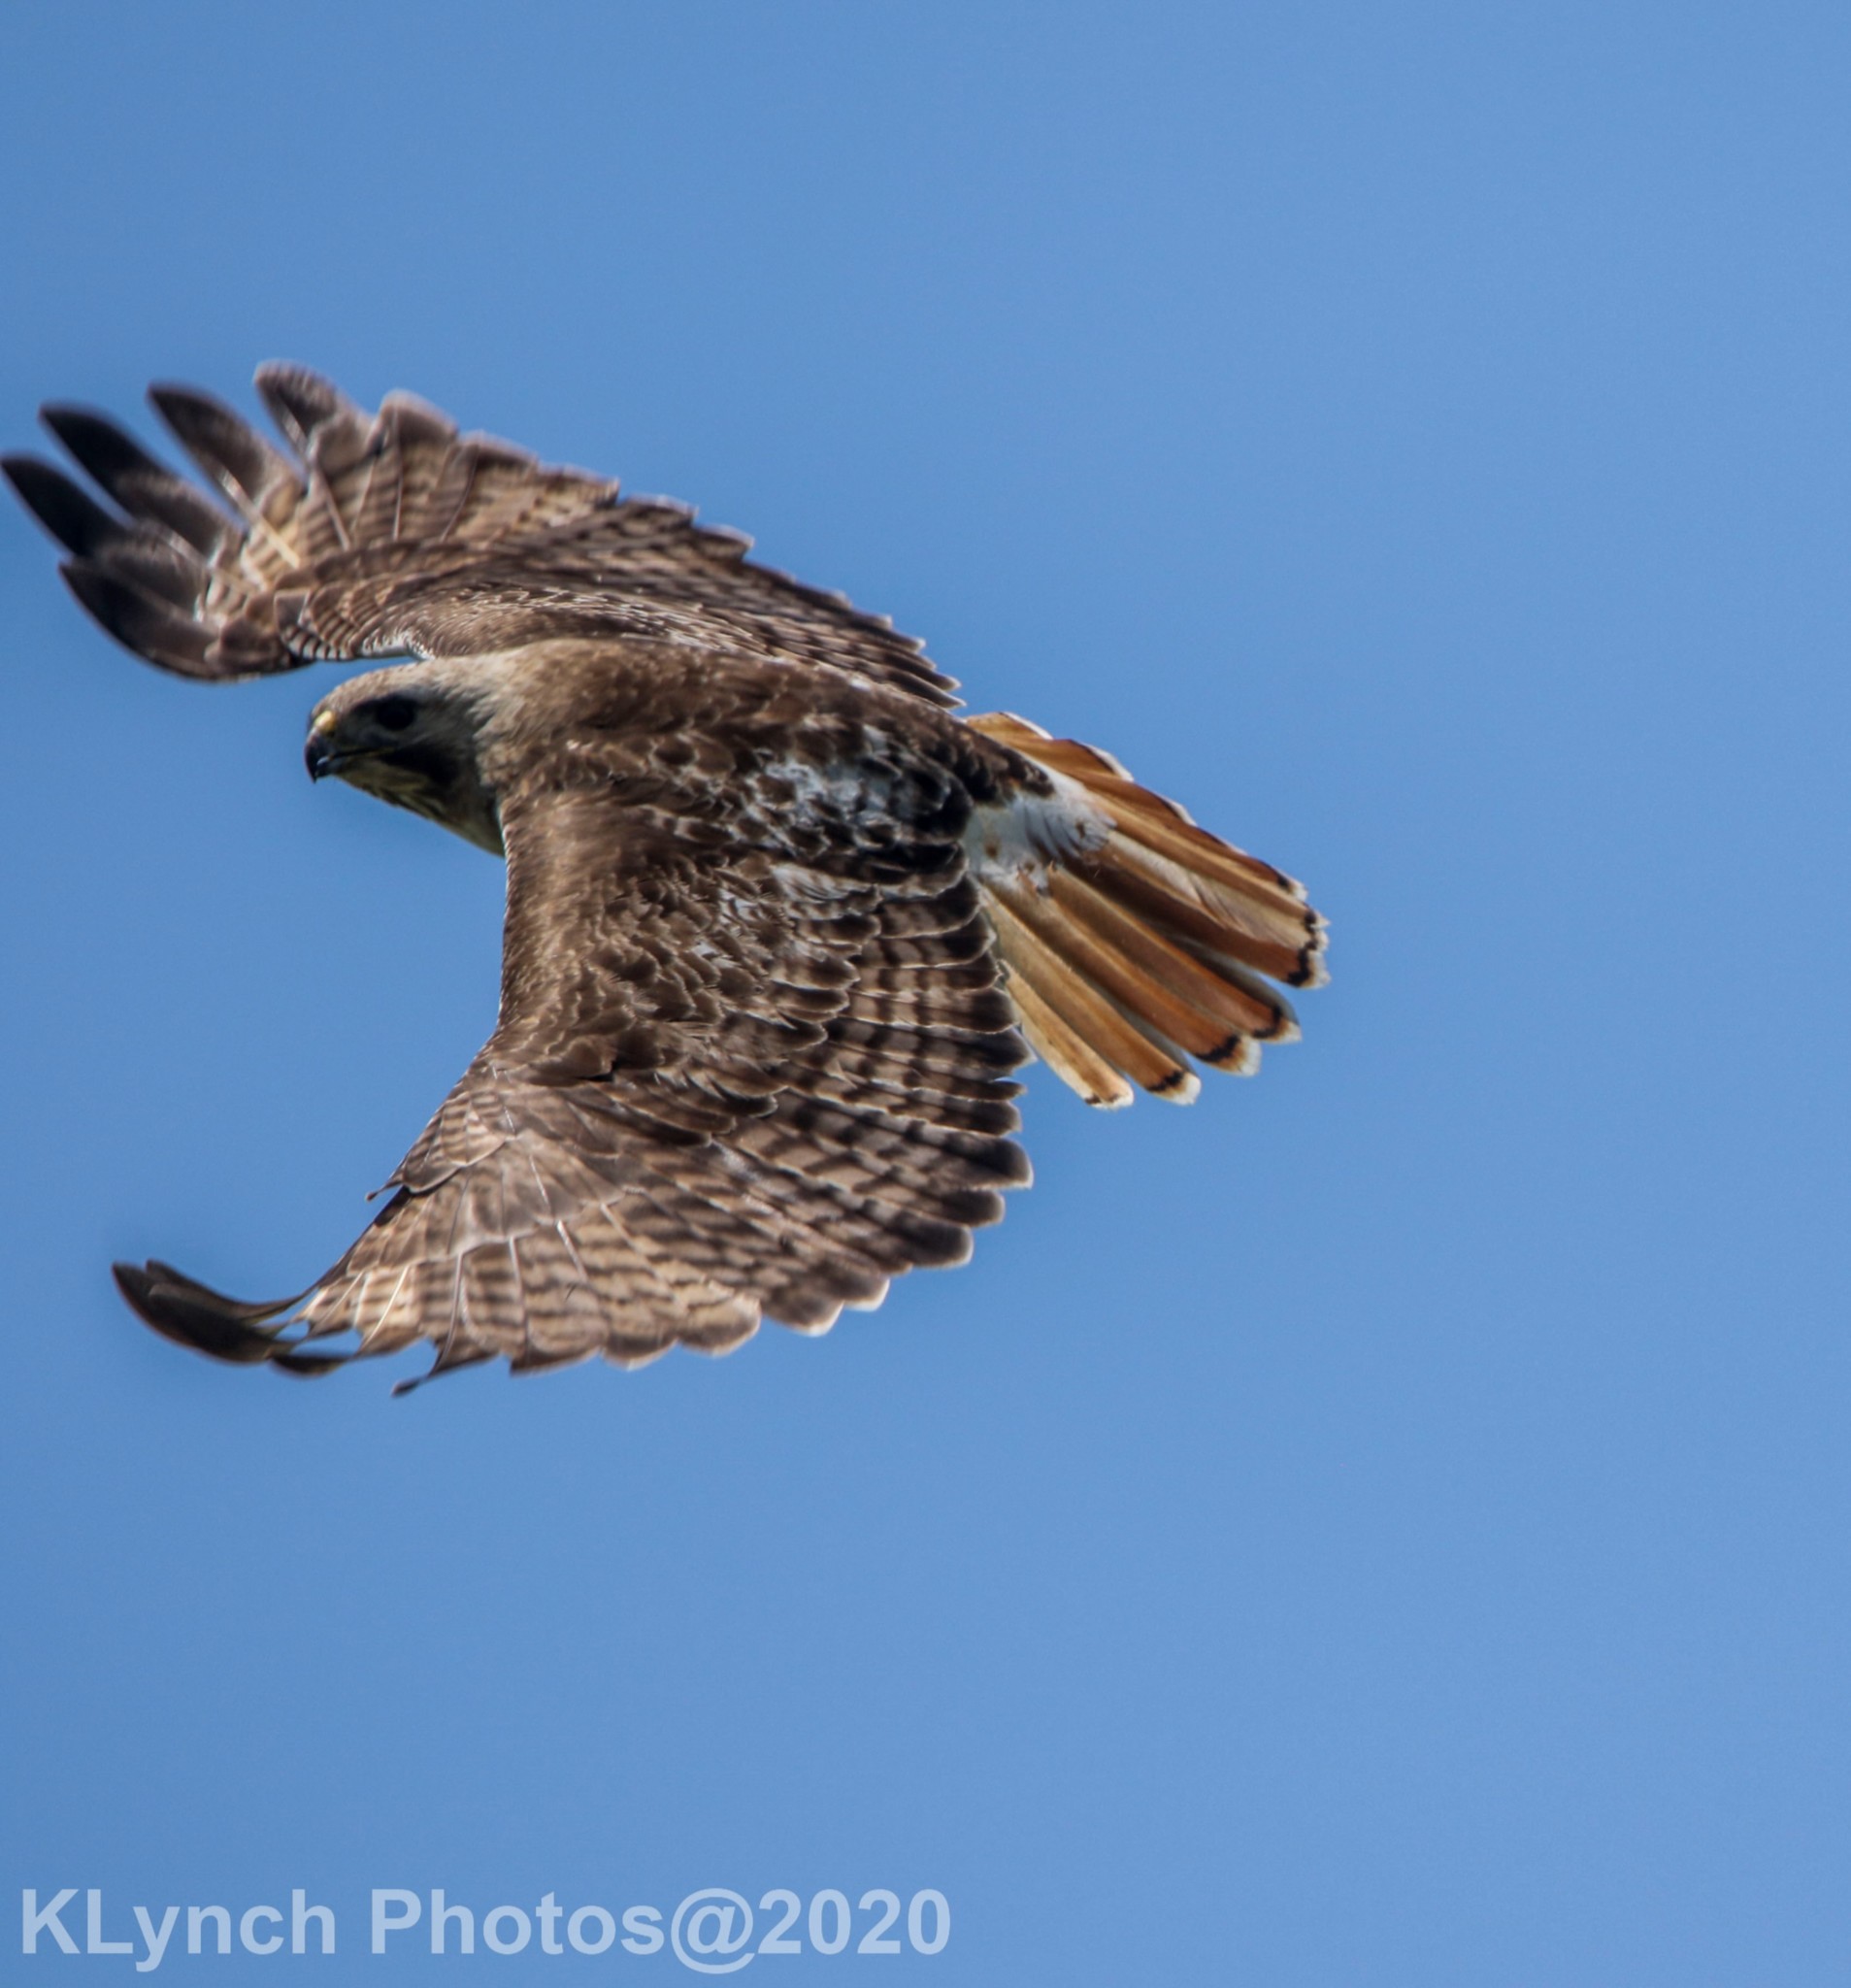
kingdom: Animalia
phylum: Chordata
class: Aves
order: Accipitriformes
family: Accipitridae
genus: Buteo
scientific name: Buteo jamaicensis
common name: Red-tailed hawk
